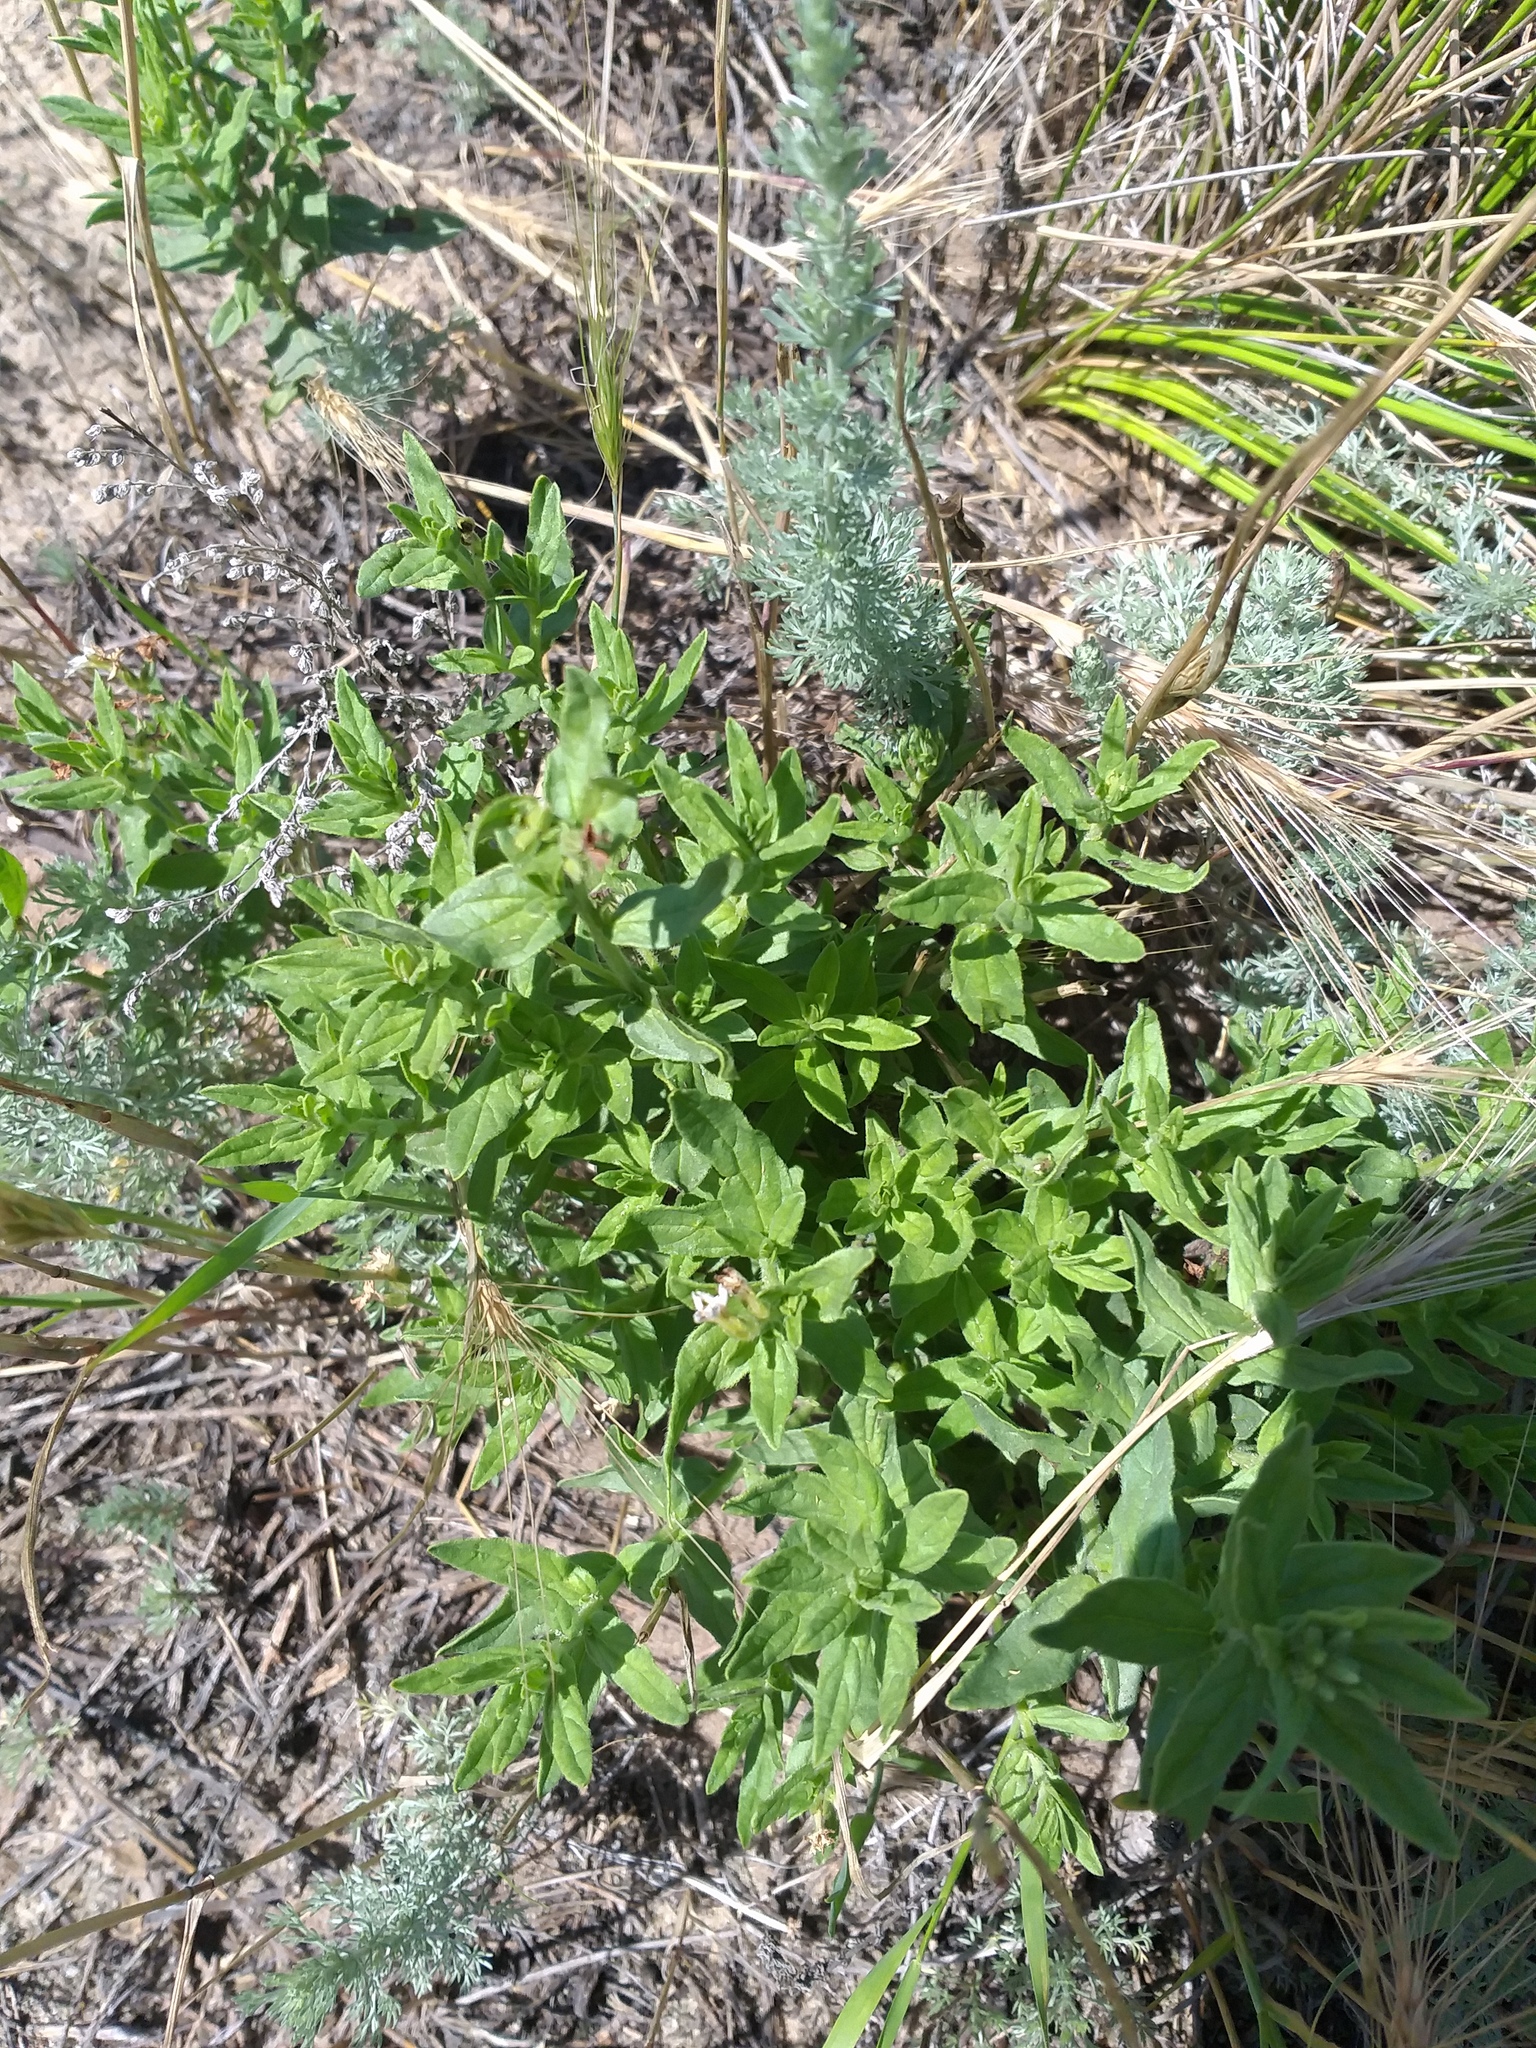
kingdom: Plantae
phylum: Tracheophyta
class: Magnoliopsida
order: Boraginales
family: Heliotropiaceae
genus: Tournefortia
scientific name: Tournefortia sibirica
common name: Siberian sea rosemary
